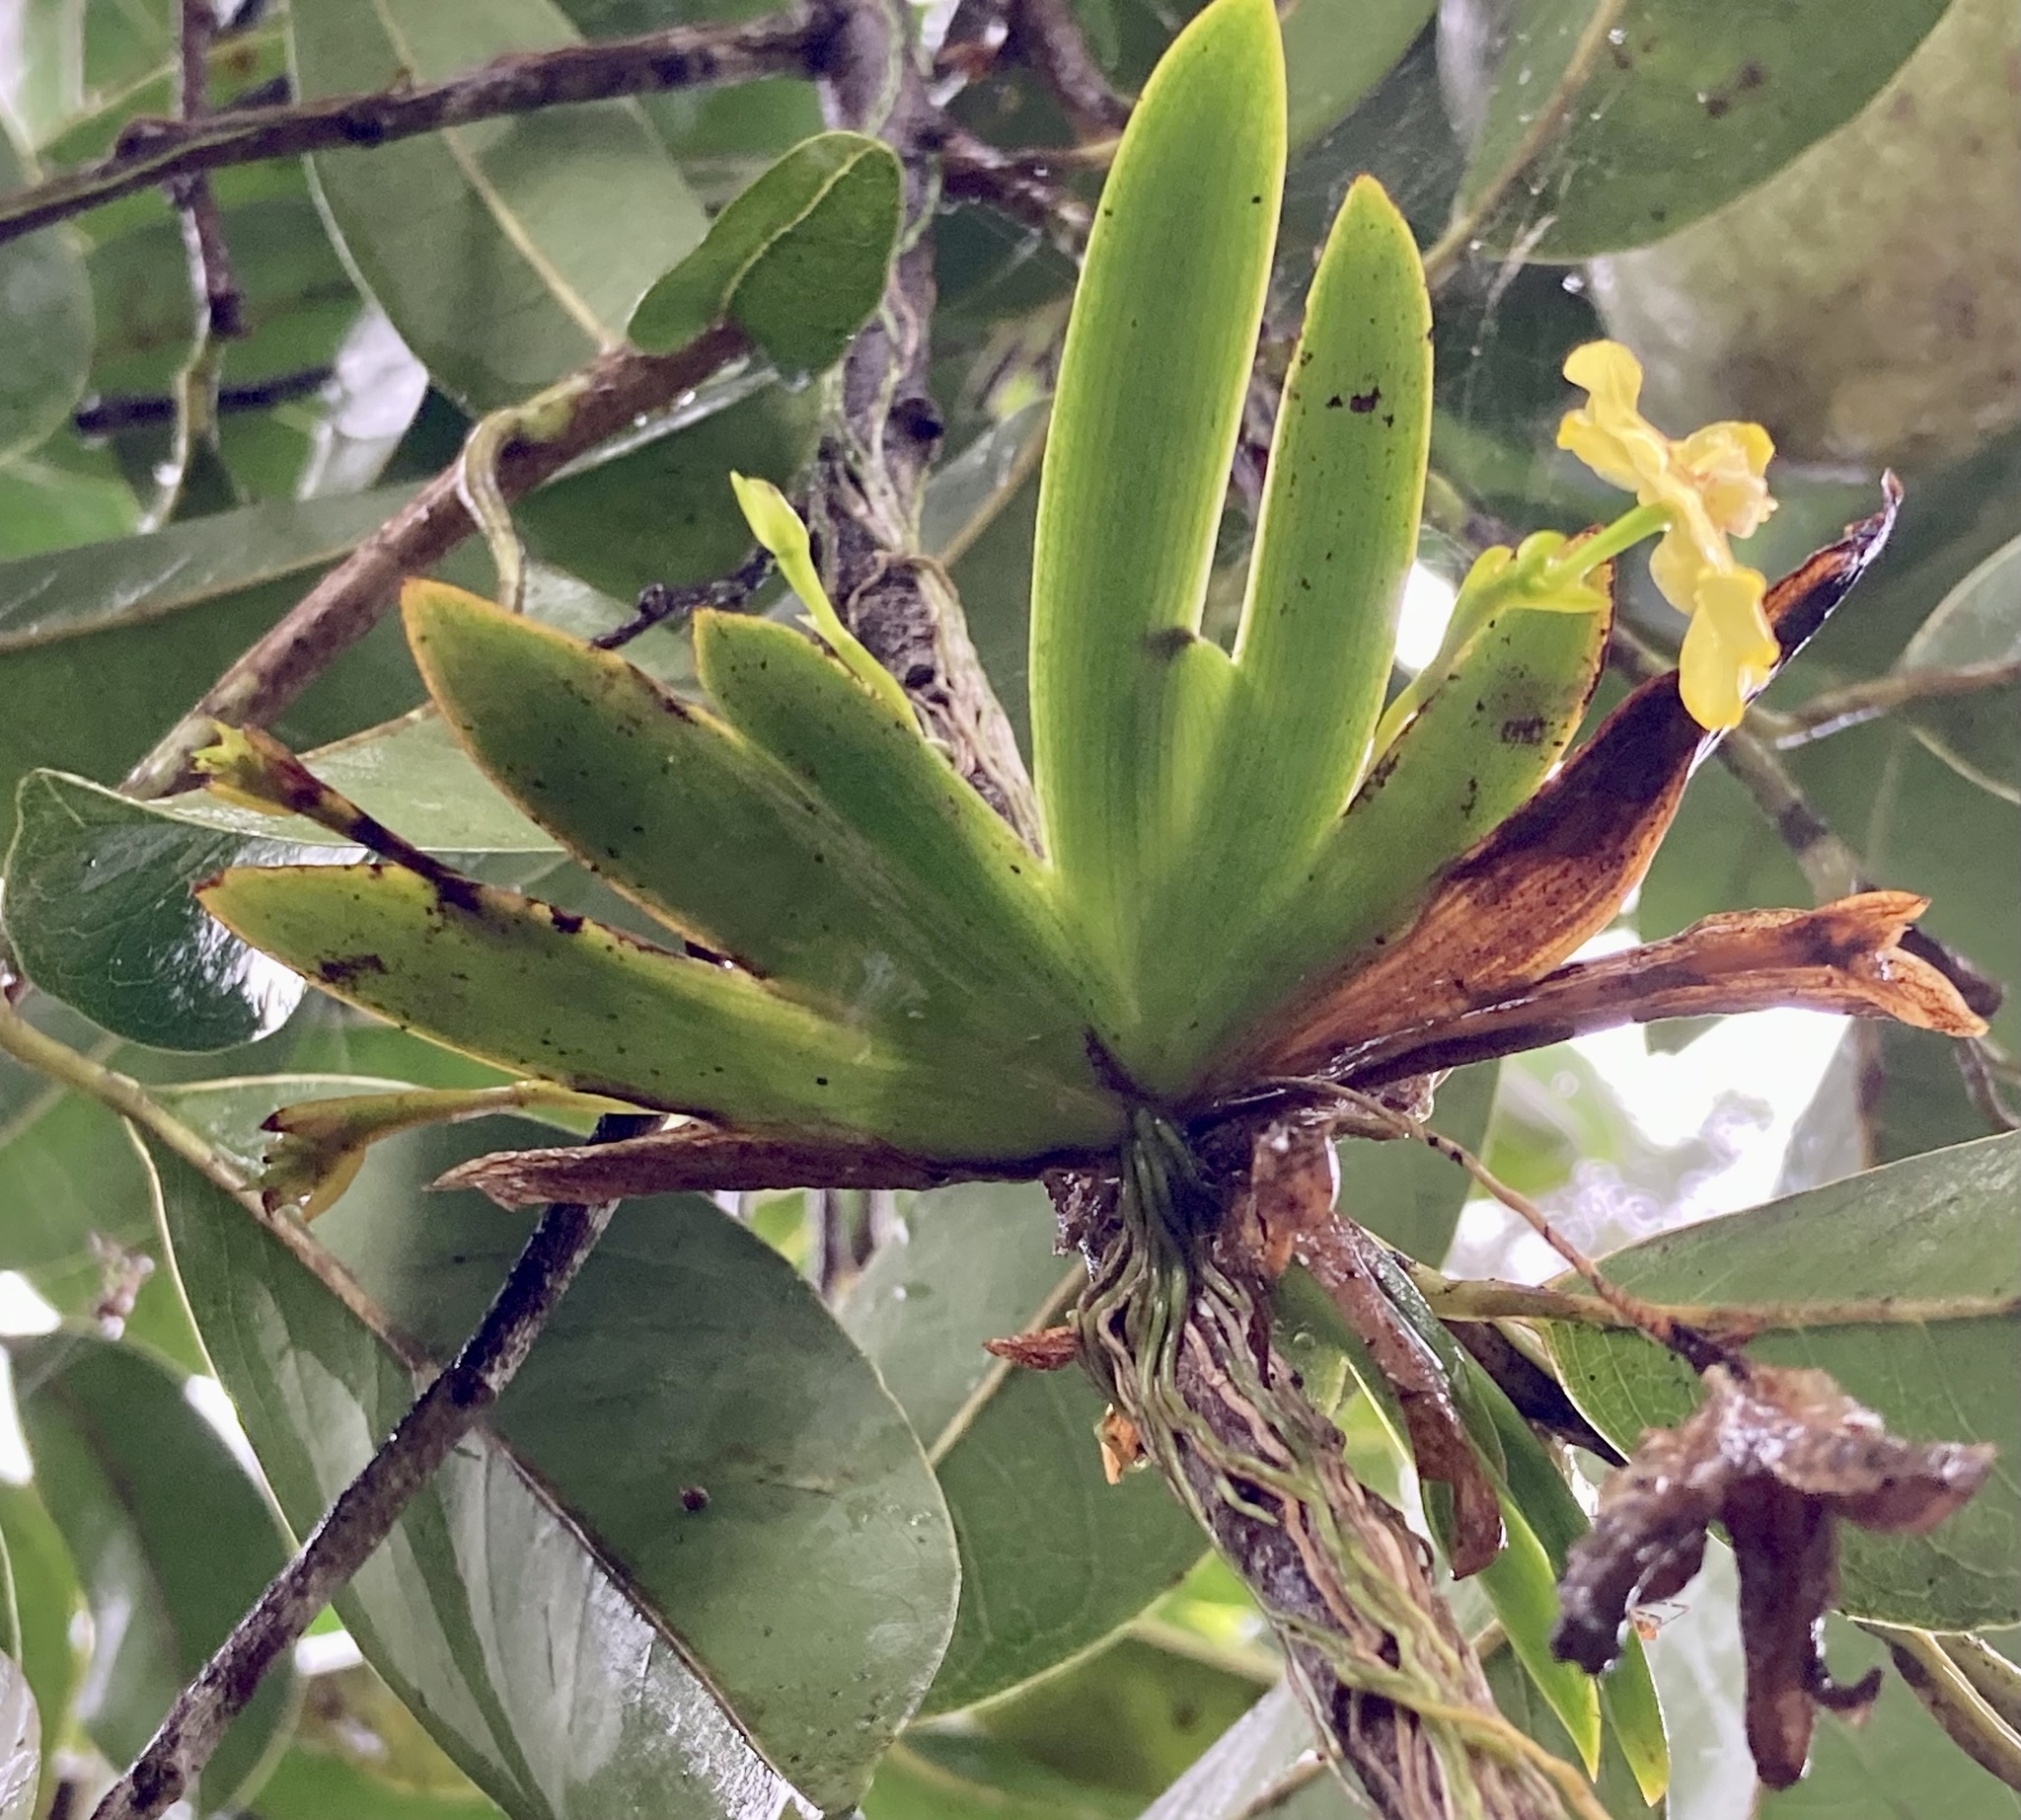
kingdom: Plantae
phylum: Tracheophyta
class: Liliopsida
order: Asparagales
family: Orchidaceae
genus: Erycina
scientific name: Erycina pusilla
